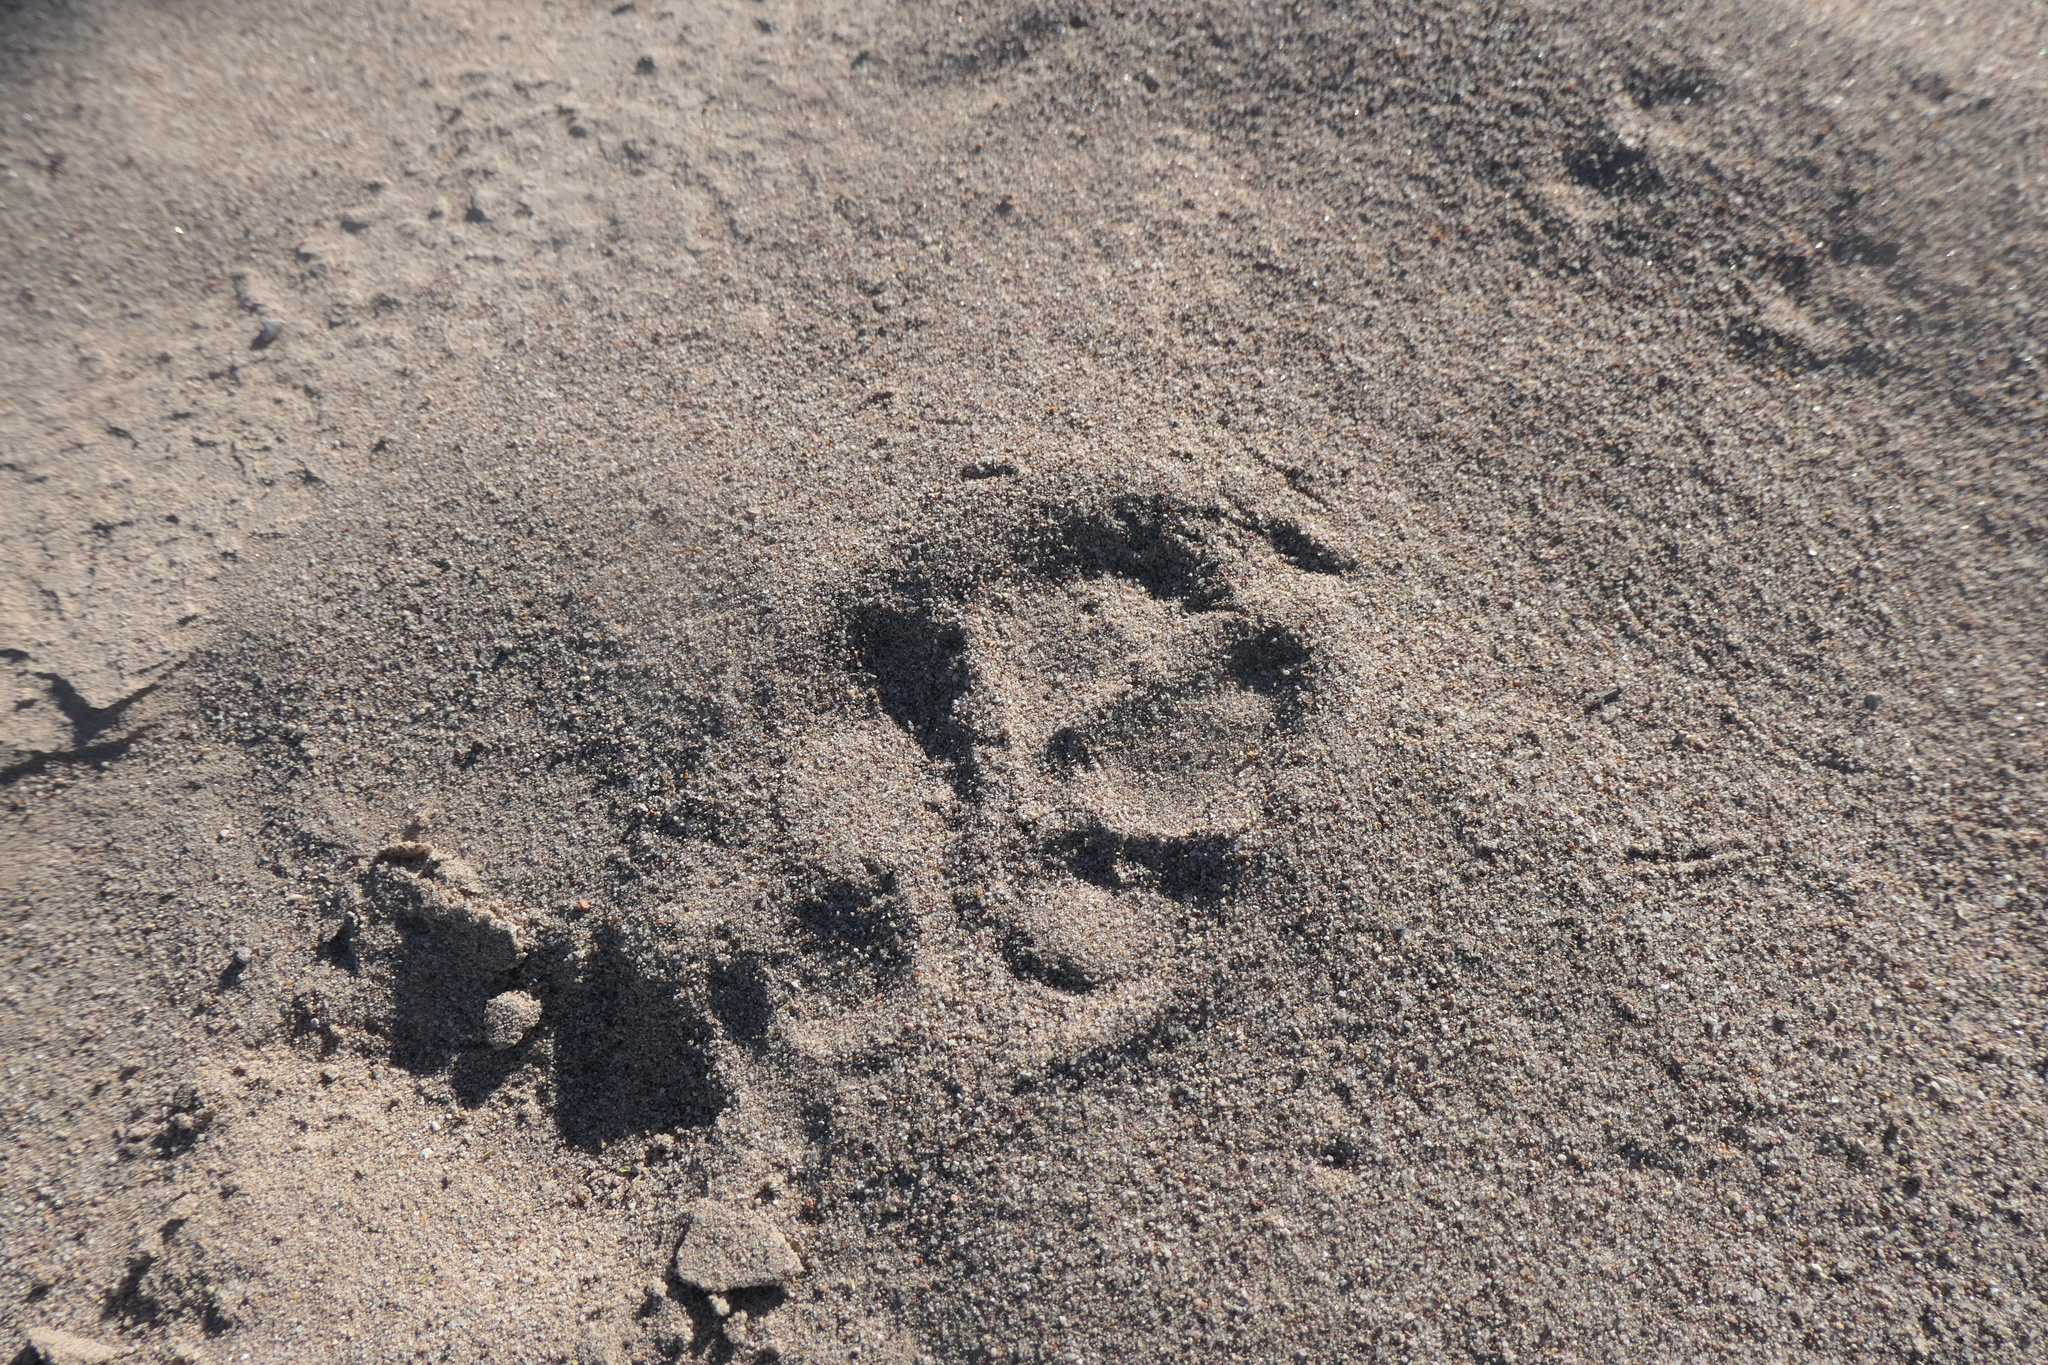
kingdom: Animalia
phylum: Chordata
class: Mammalia
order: Carnivora
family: Canidae
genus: Canis
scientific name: Canis latrans
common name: Coyote
